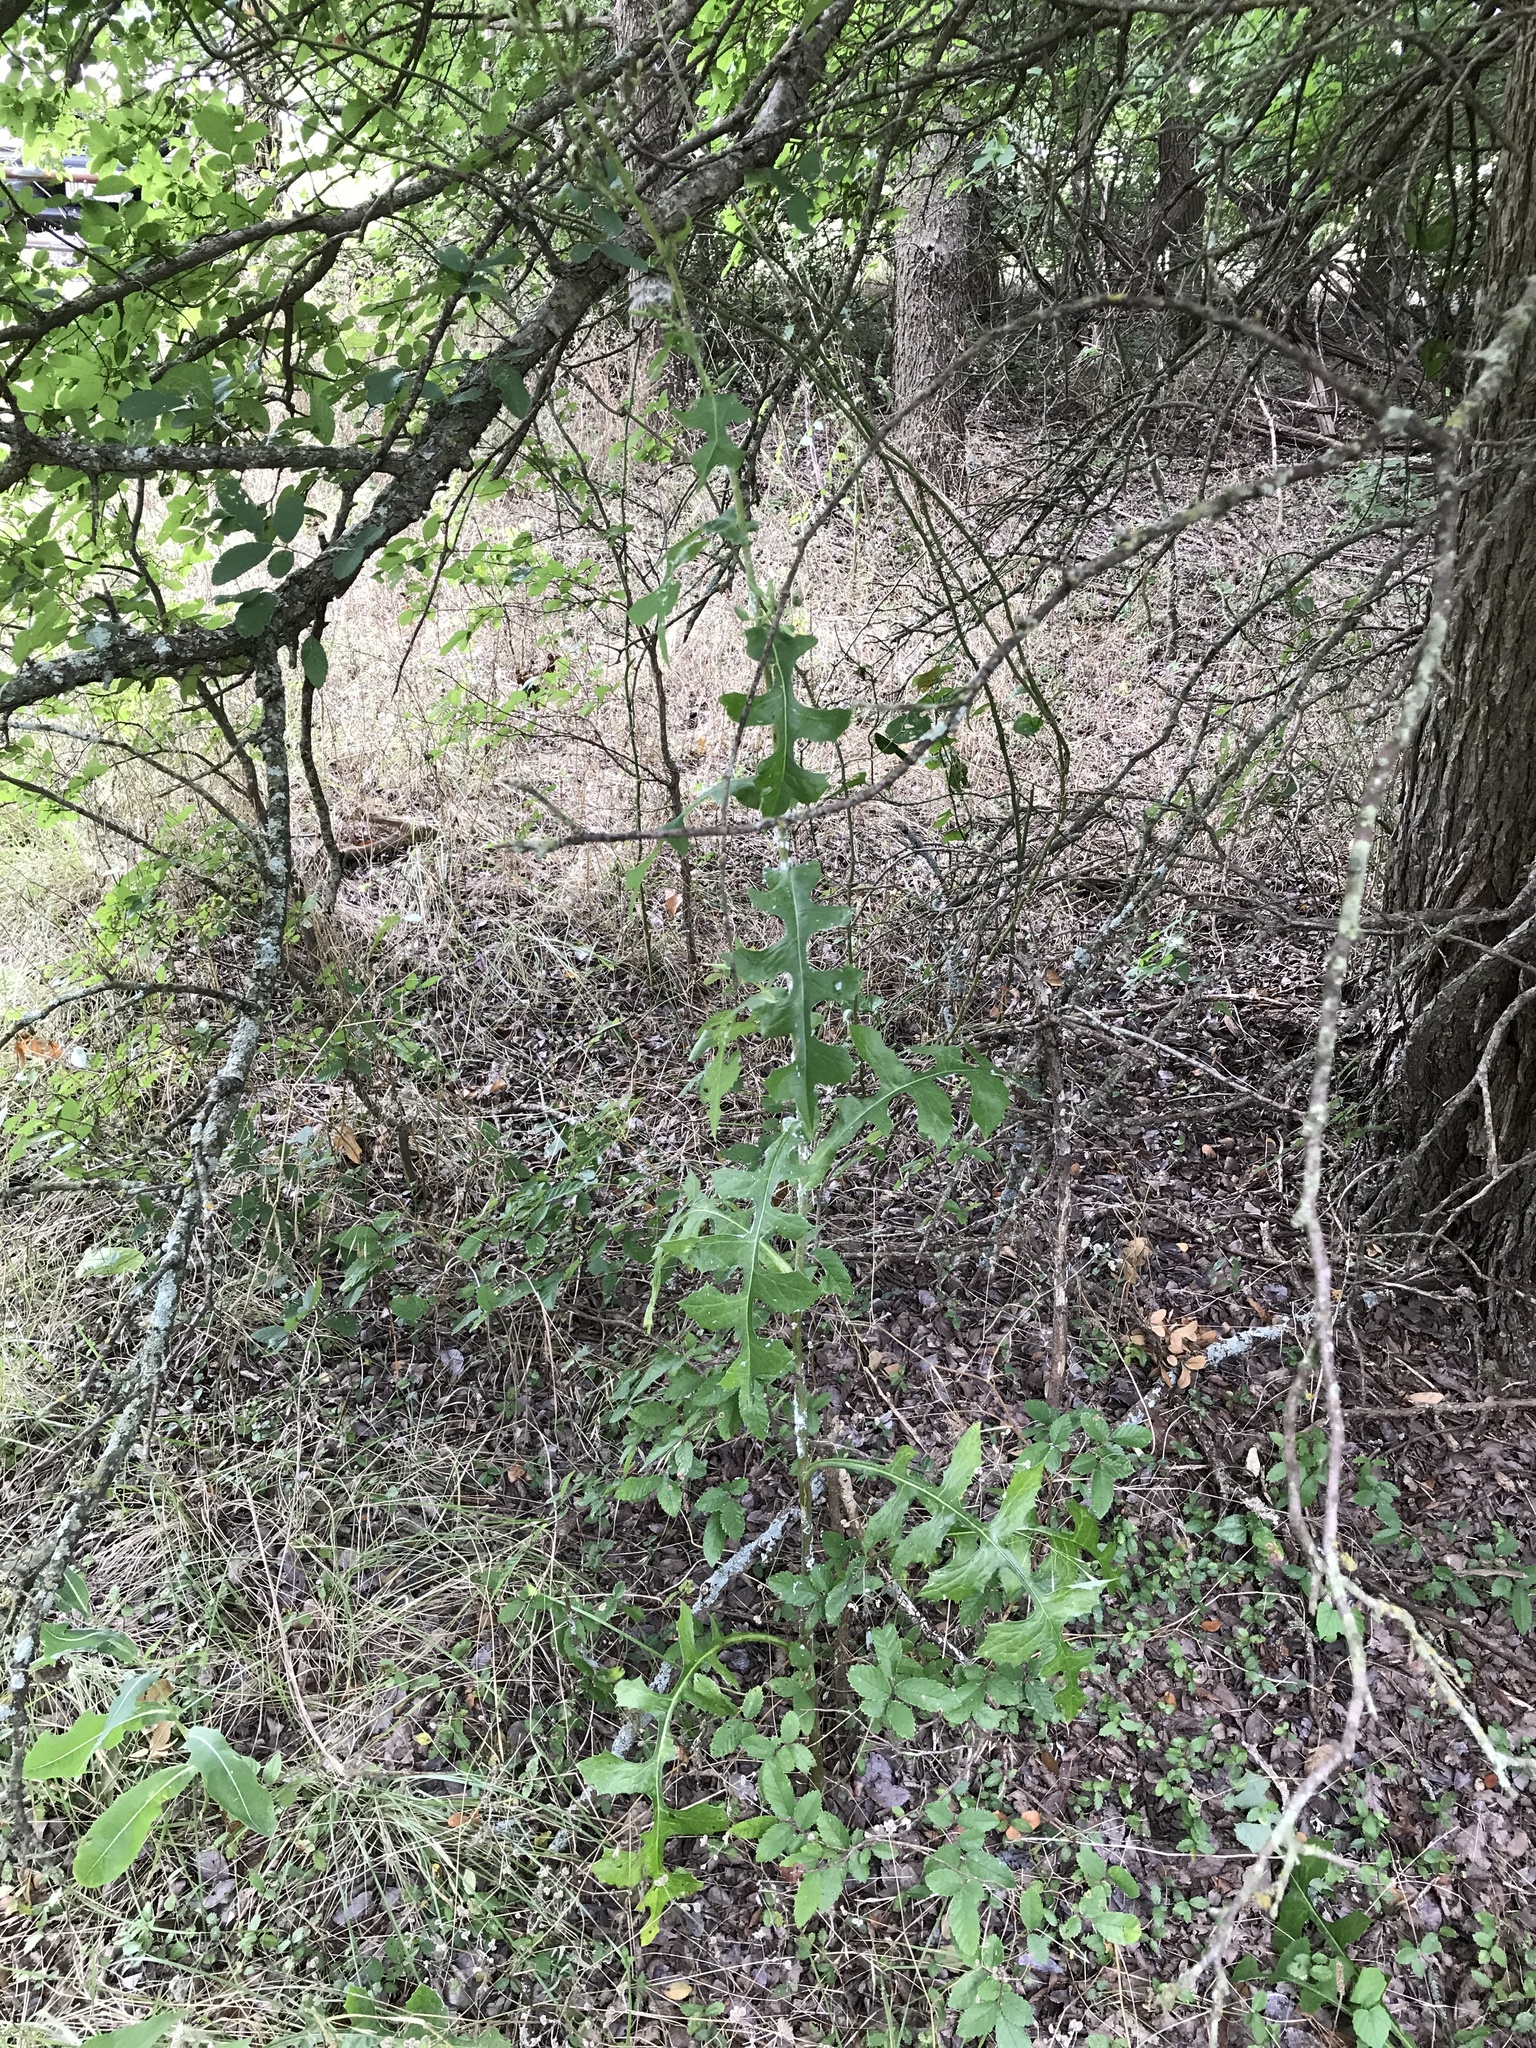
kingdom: Plantae
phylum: Tracheophyta
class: Magnoliopsida
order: Asterales
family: Asteraceae
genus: Lactuca
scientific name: Lactuca canadensis
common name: Canada lettuce
